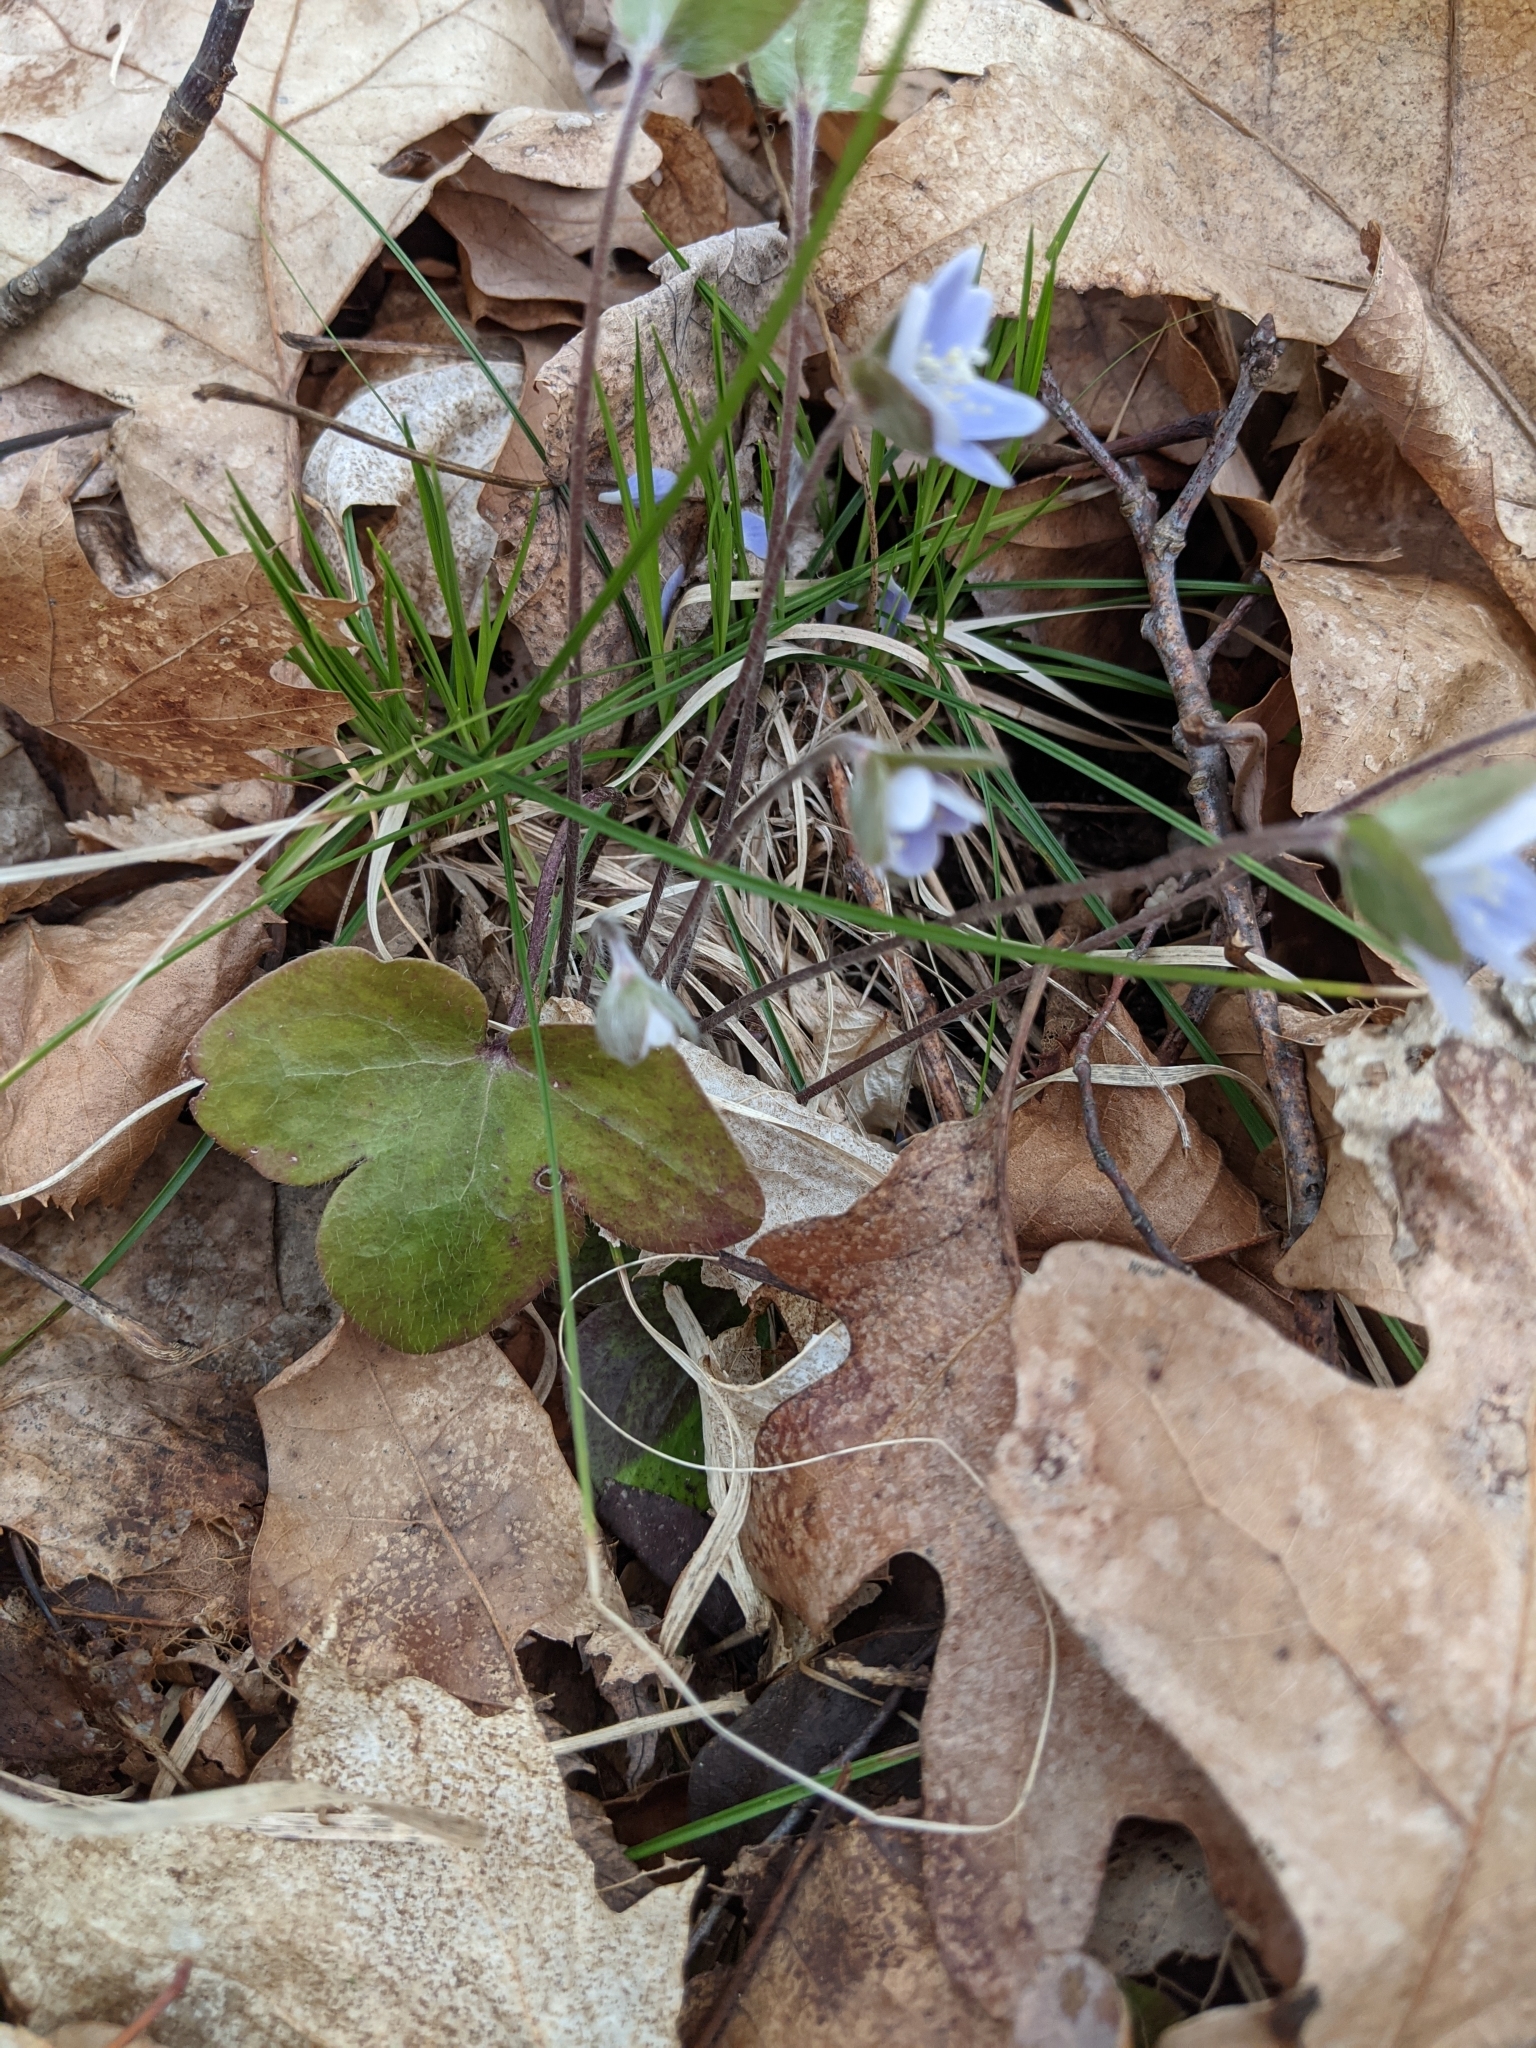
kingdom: Plantae
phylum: Tracheophyta
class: Magnoliopsida
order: Ranunculales
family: Ranunculaceae
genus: Hepatica
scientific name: Hepatica americana
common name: American hepatica
